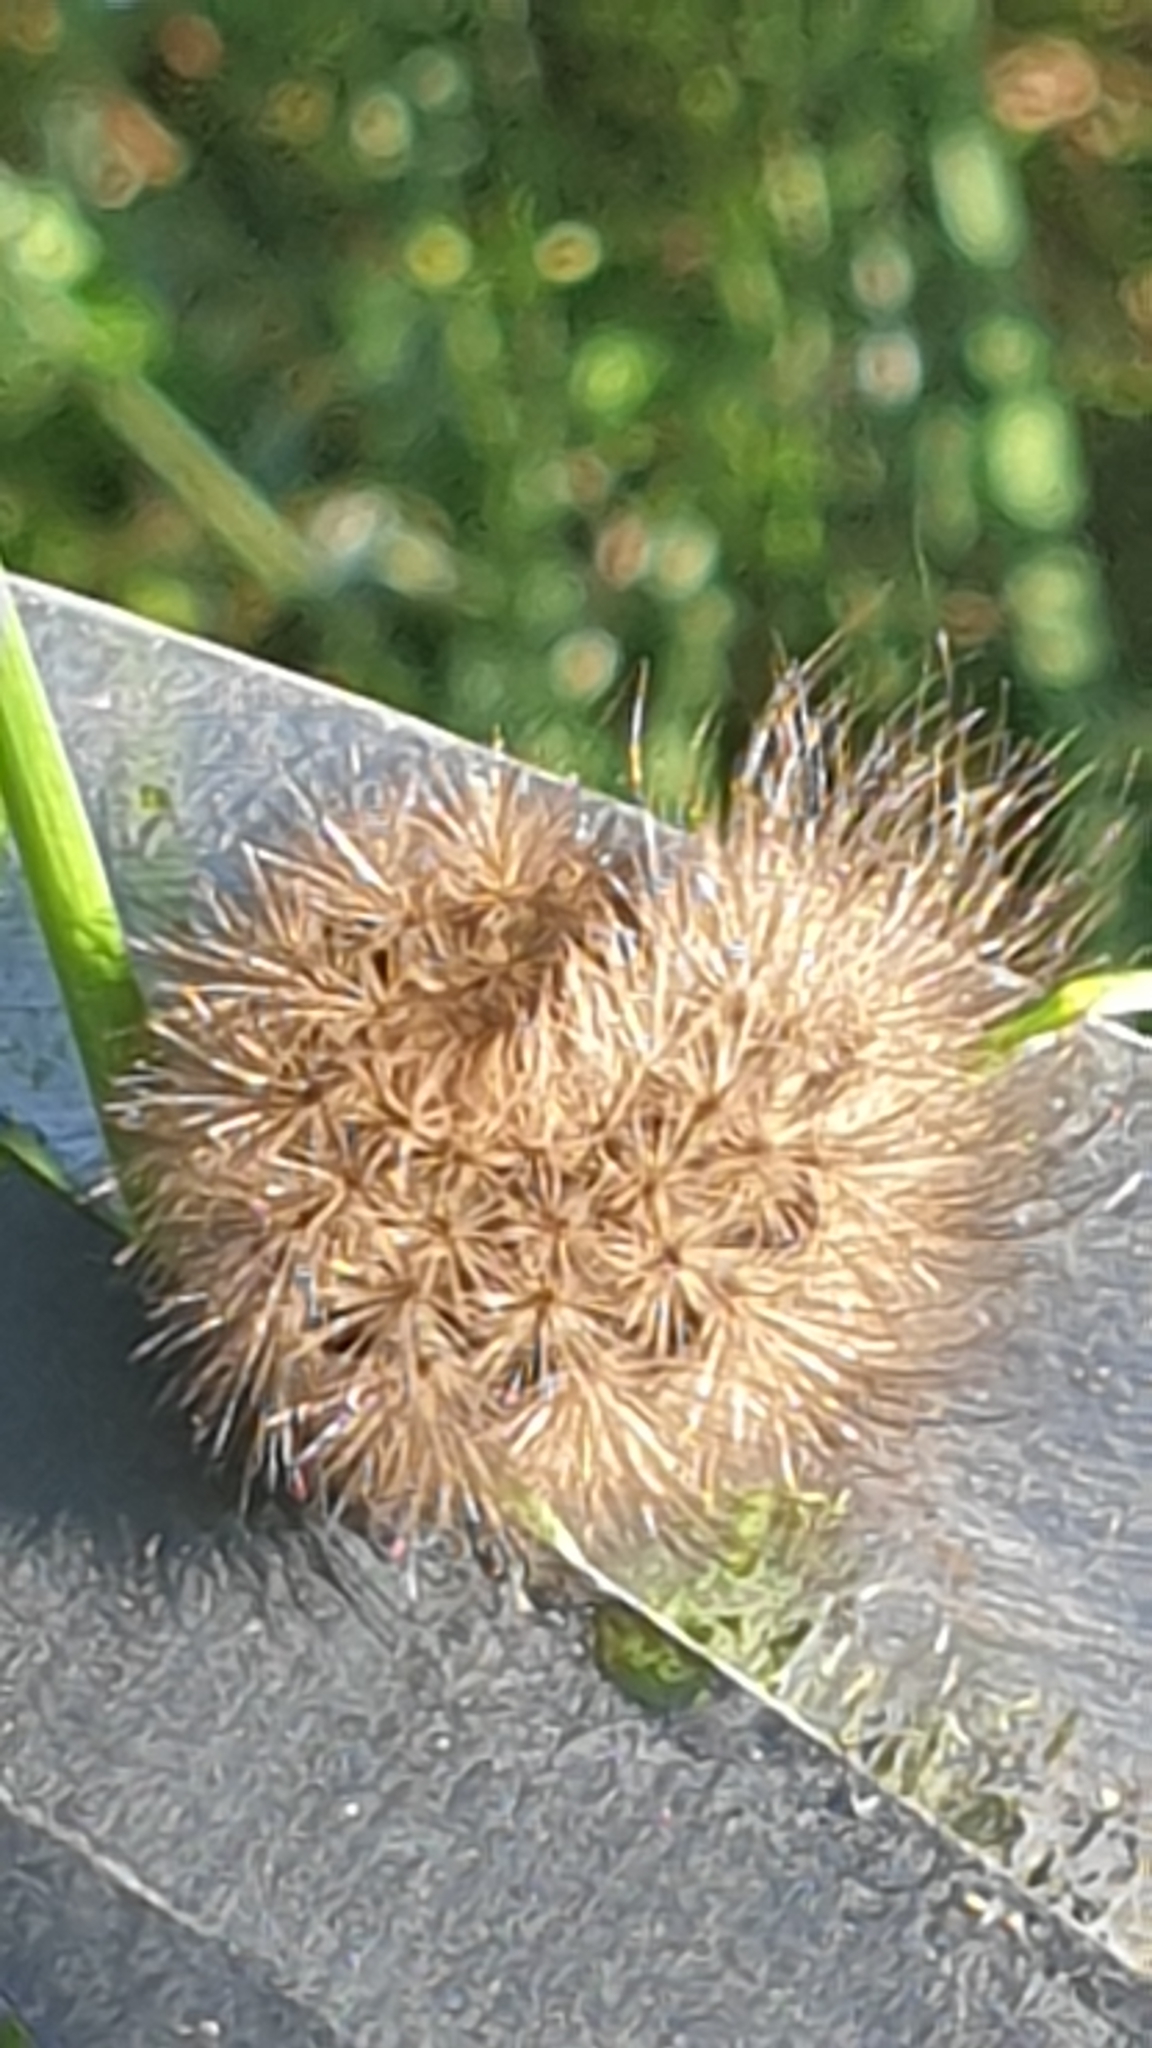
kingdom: Animalia
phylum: Arthropoda
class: Insecta
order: Lepidoptera
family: Erebidae
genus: Phragmatobia
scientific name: Phragmatobia fuliginosa
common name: Ruby tiger
